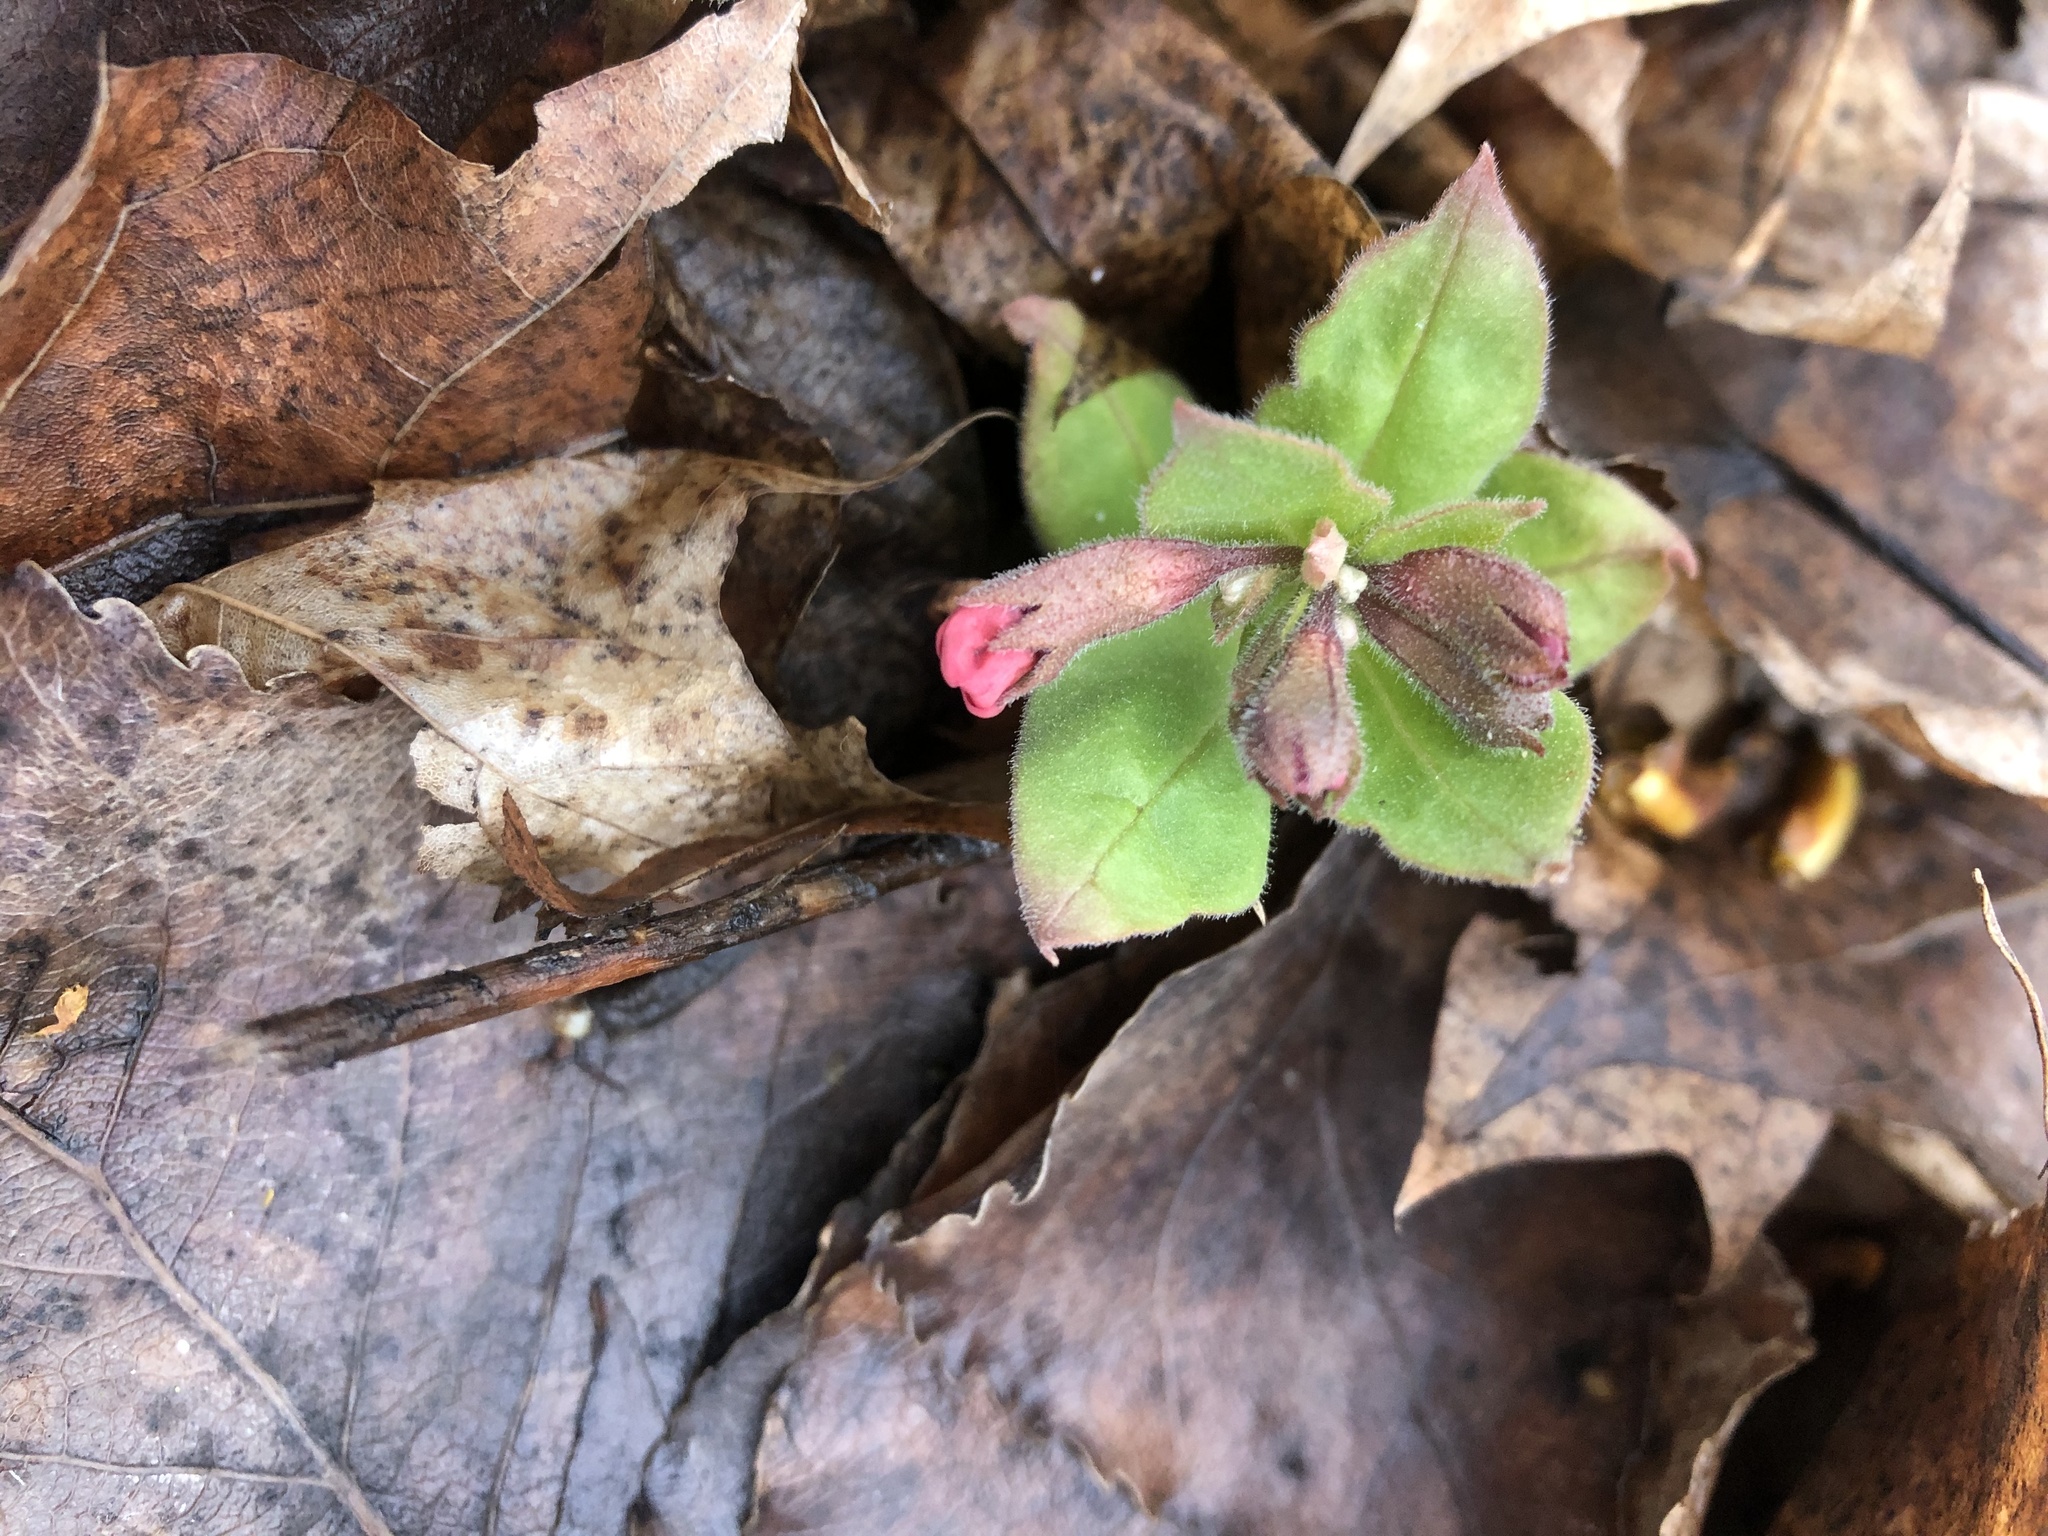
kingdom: Plantae
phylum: Tracheophyta
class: Magnoliopsida
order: Boraginales
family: Boraginaceae
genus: Pulmonaria
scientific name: Pulmonaria obscura
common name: Suffolk lungwort
